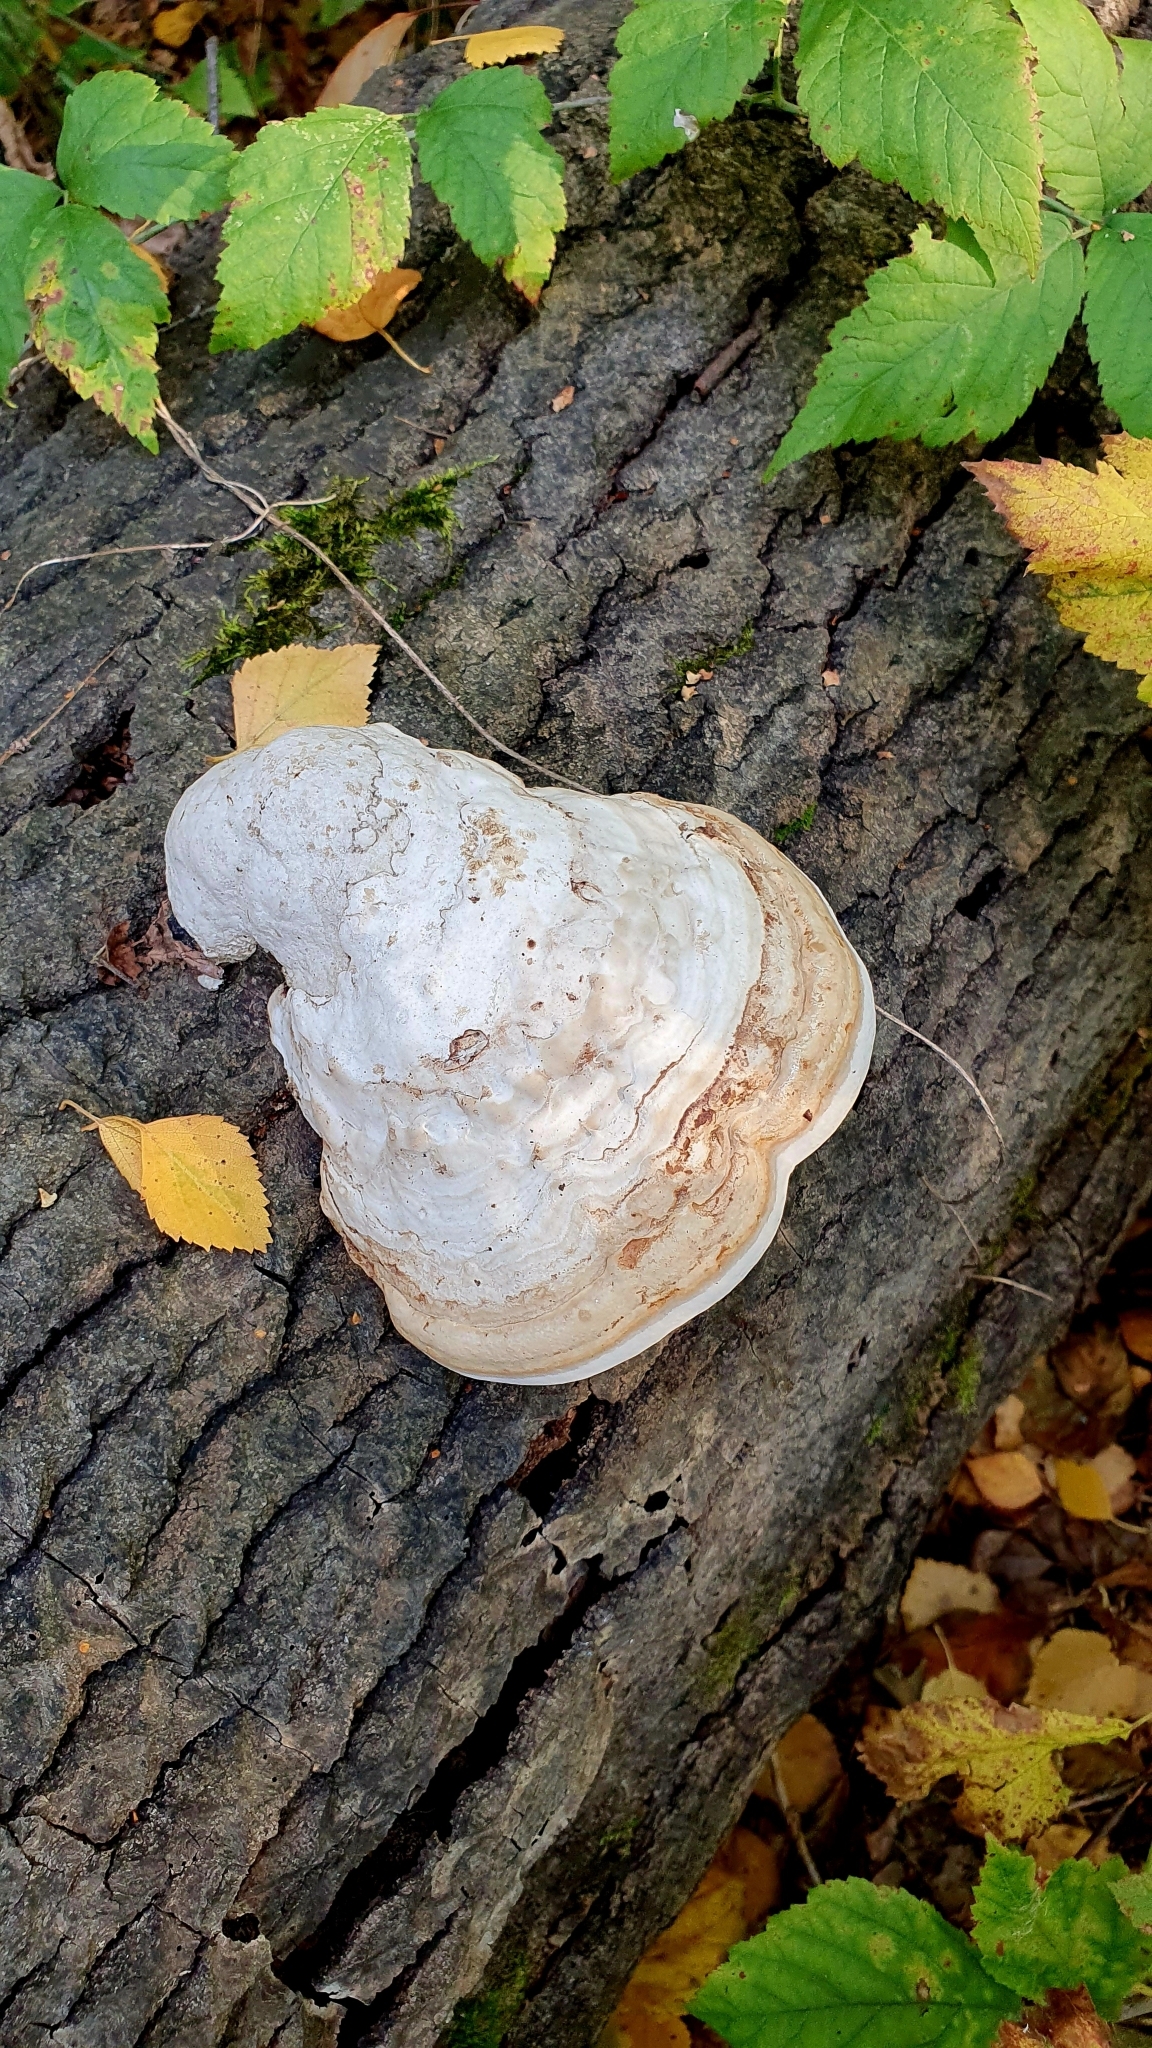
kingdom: Fungi
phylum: Basidiomycota
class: Agaricomycetes
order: Polyporales
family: Polyporaceae
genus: Fomes
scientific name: Fomes fomentarius
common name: Hoof fungus
